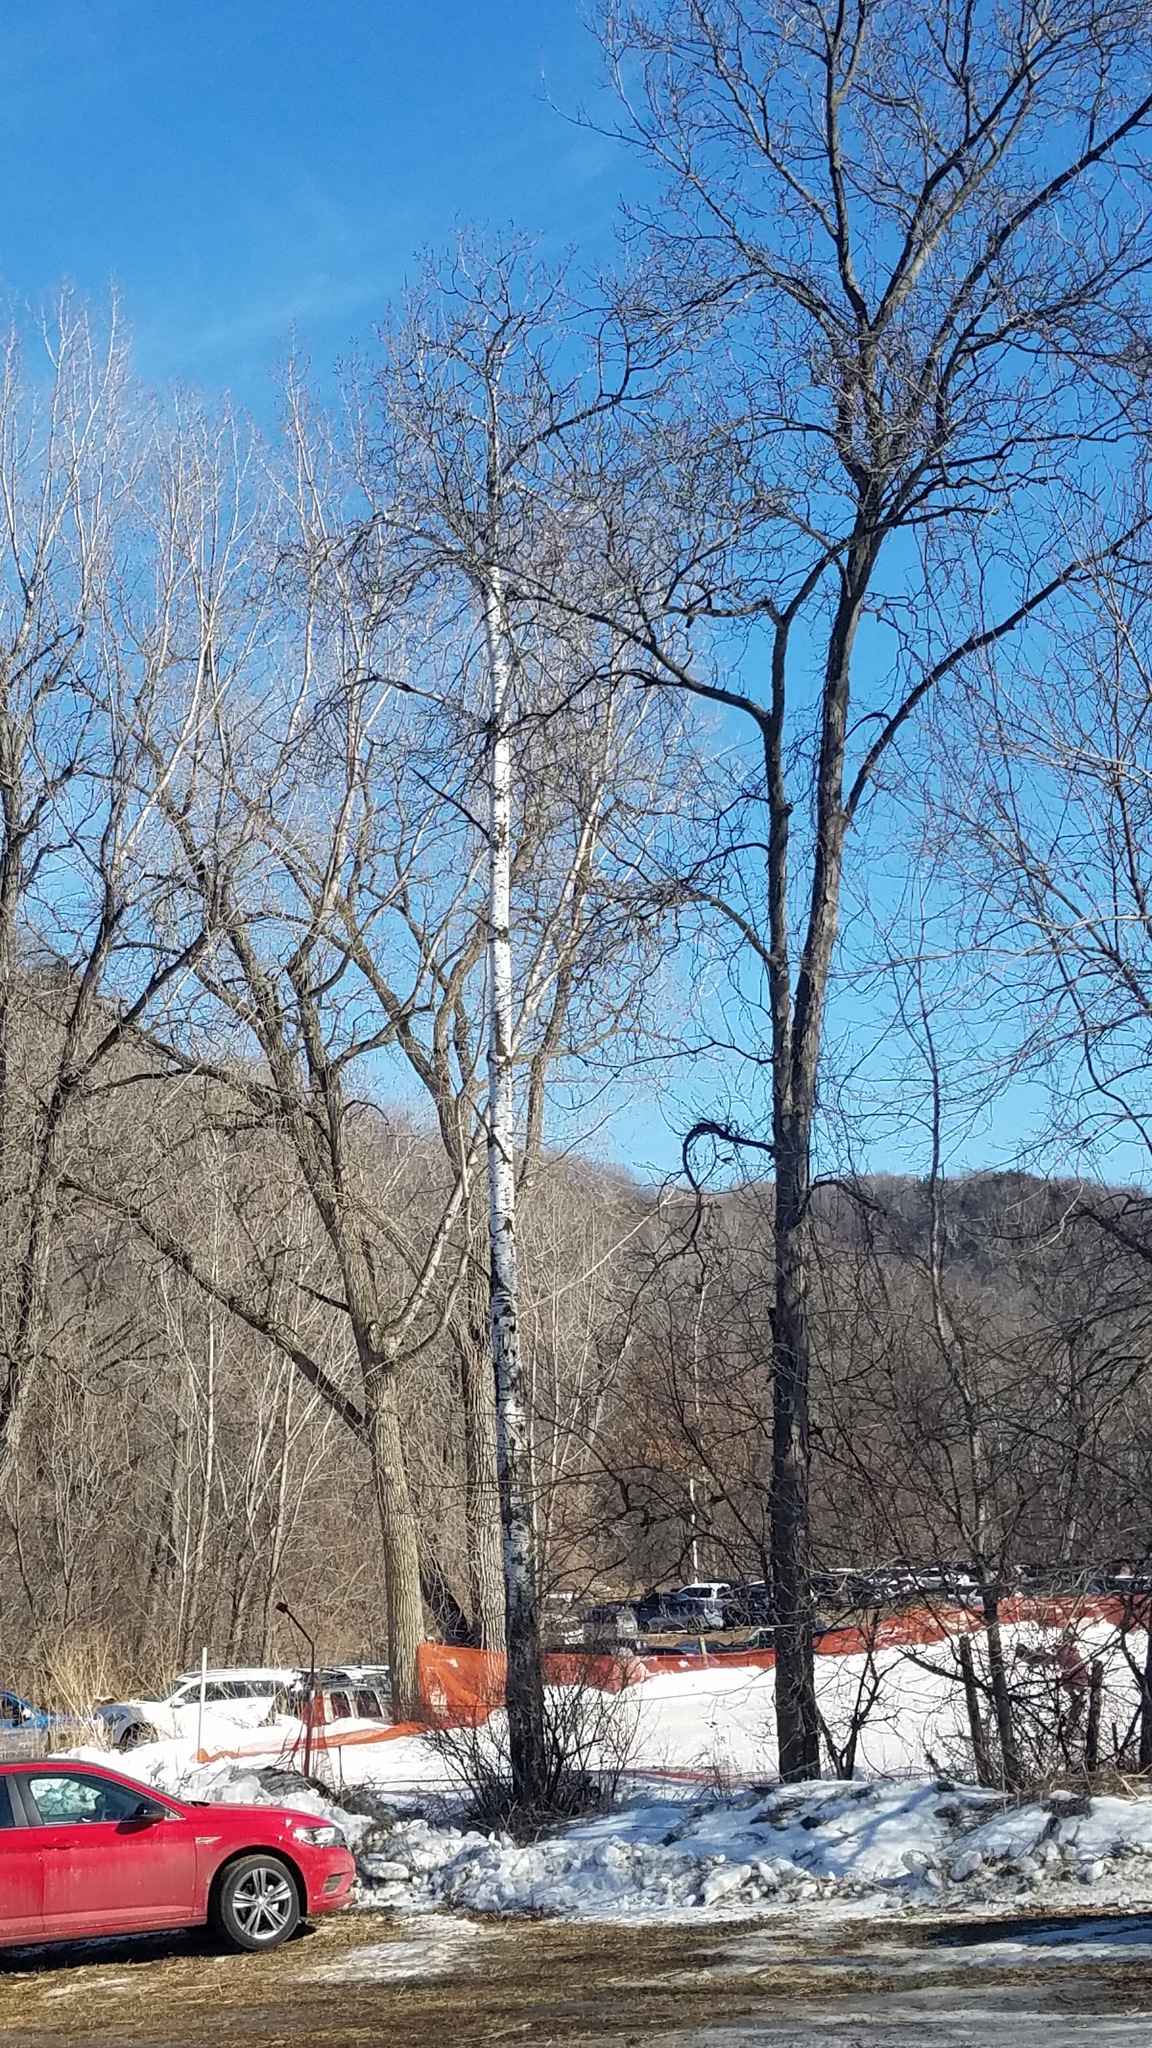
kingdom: Plantae
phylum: Tracheophyta
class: Magnoliopsida
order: Malpighiales
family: Salicaceae
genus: Populus
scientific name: Populus tremuloides
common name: Quaking aspen
